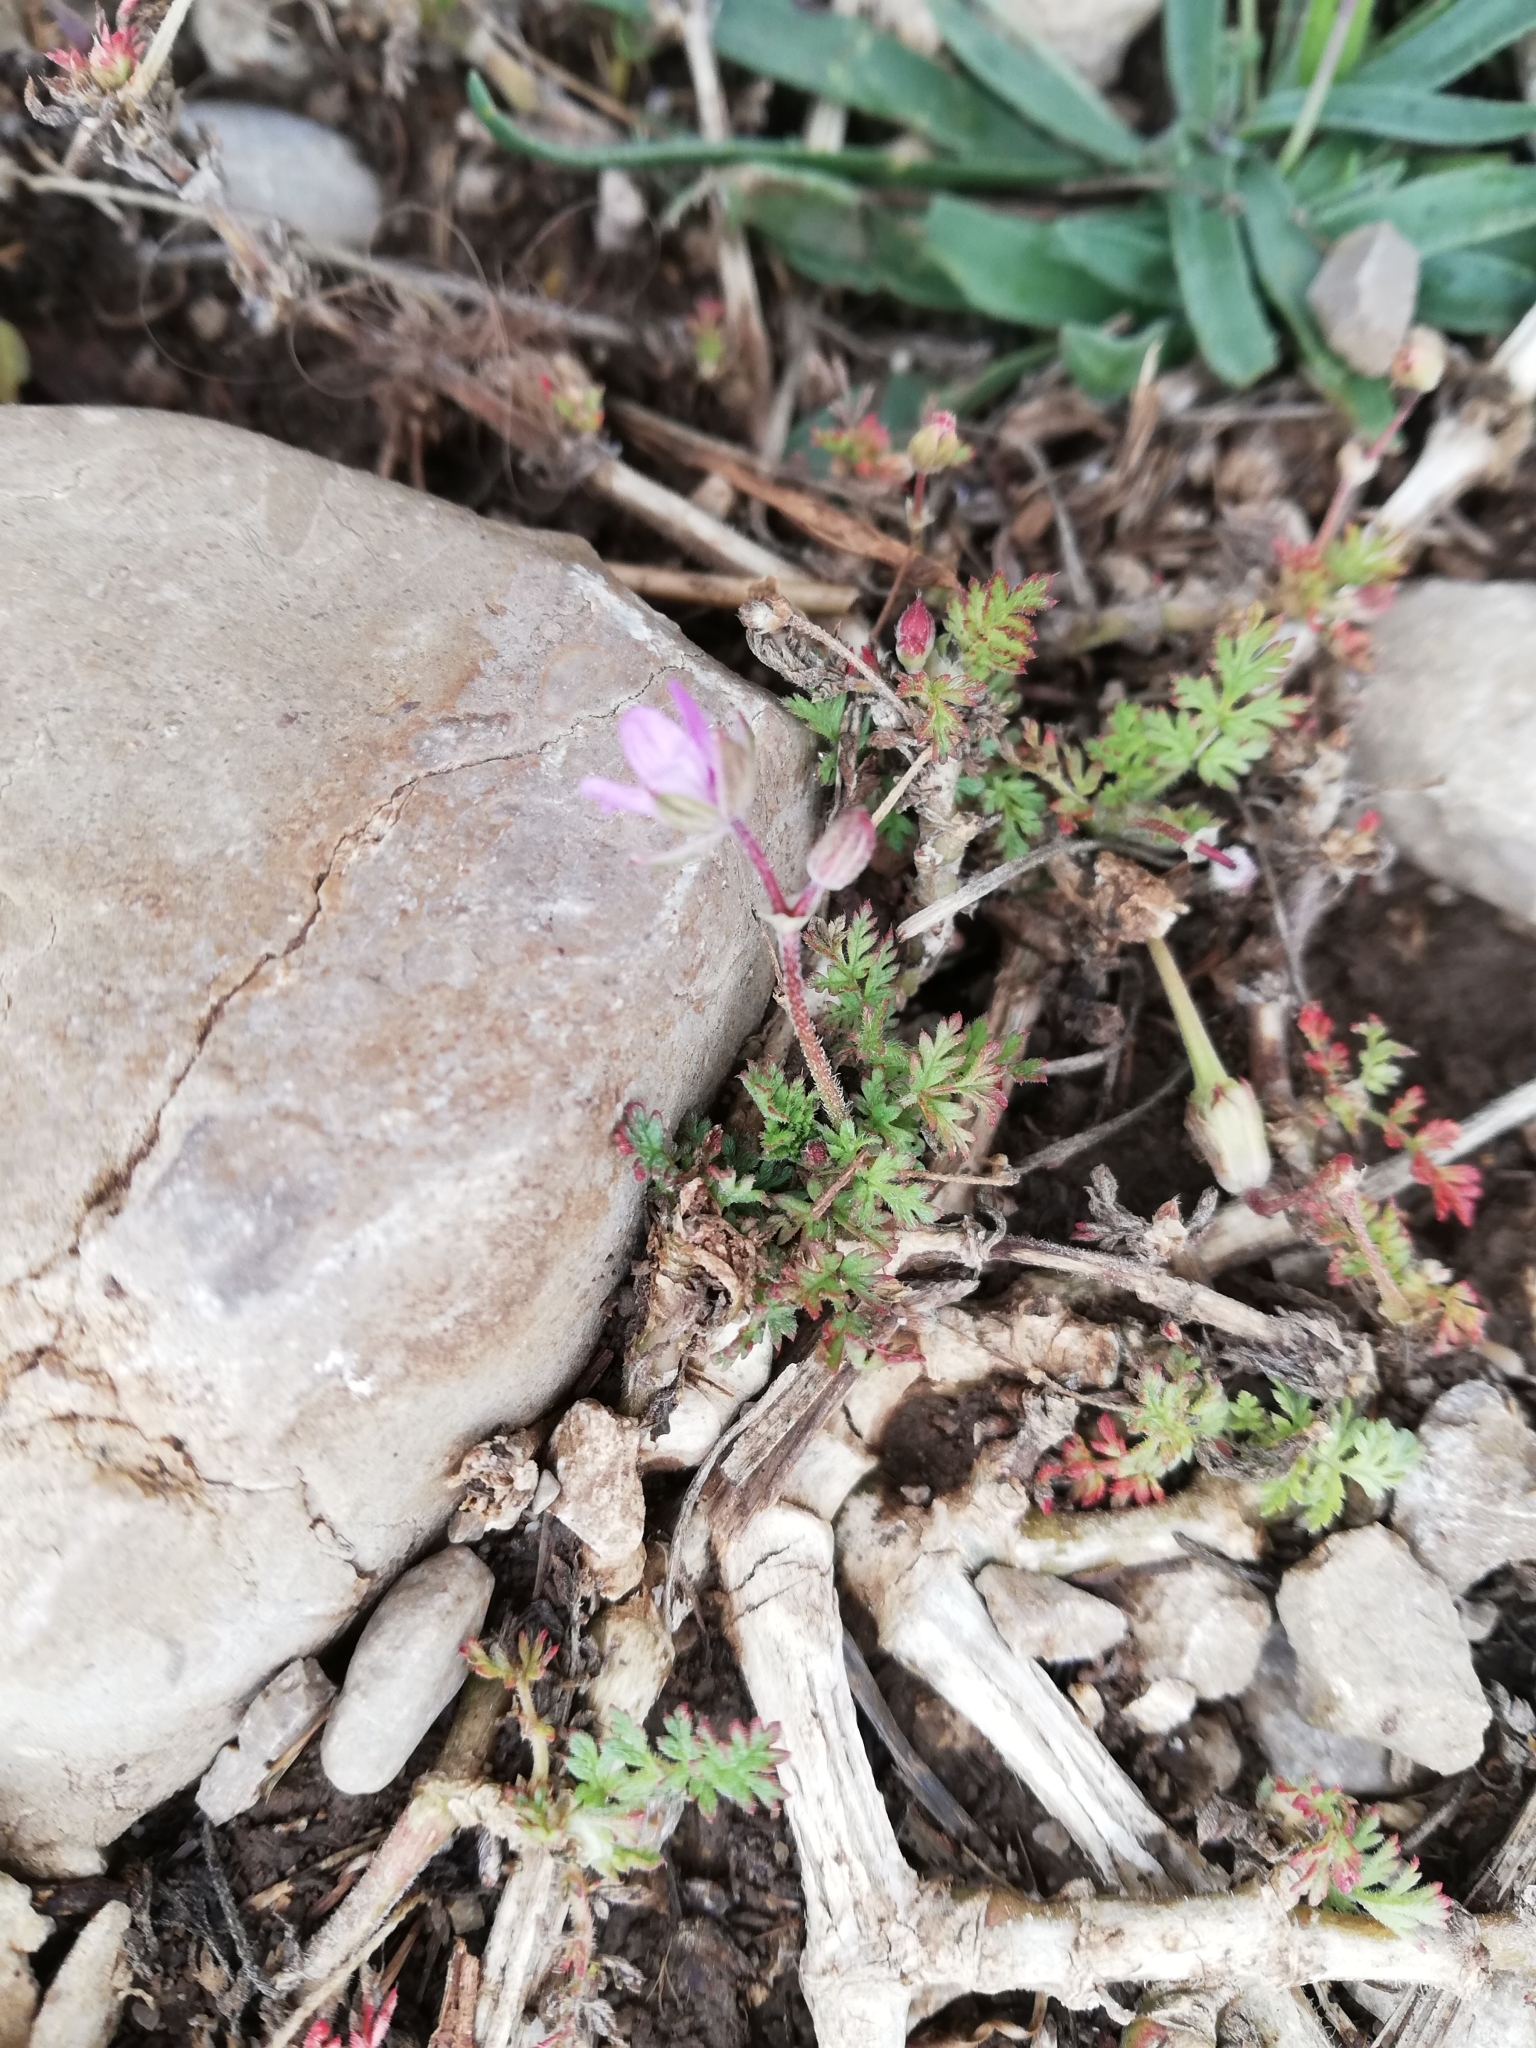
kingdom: Plantae
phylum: Tracheophyta
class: Magnoliopsida
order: Geraniales
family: Geraniaceae
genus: Erodium
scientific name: Erodium cicutarium
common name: Common stork's-bill
